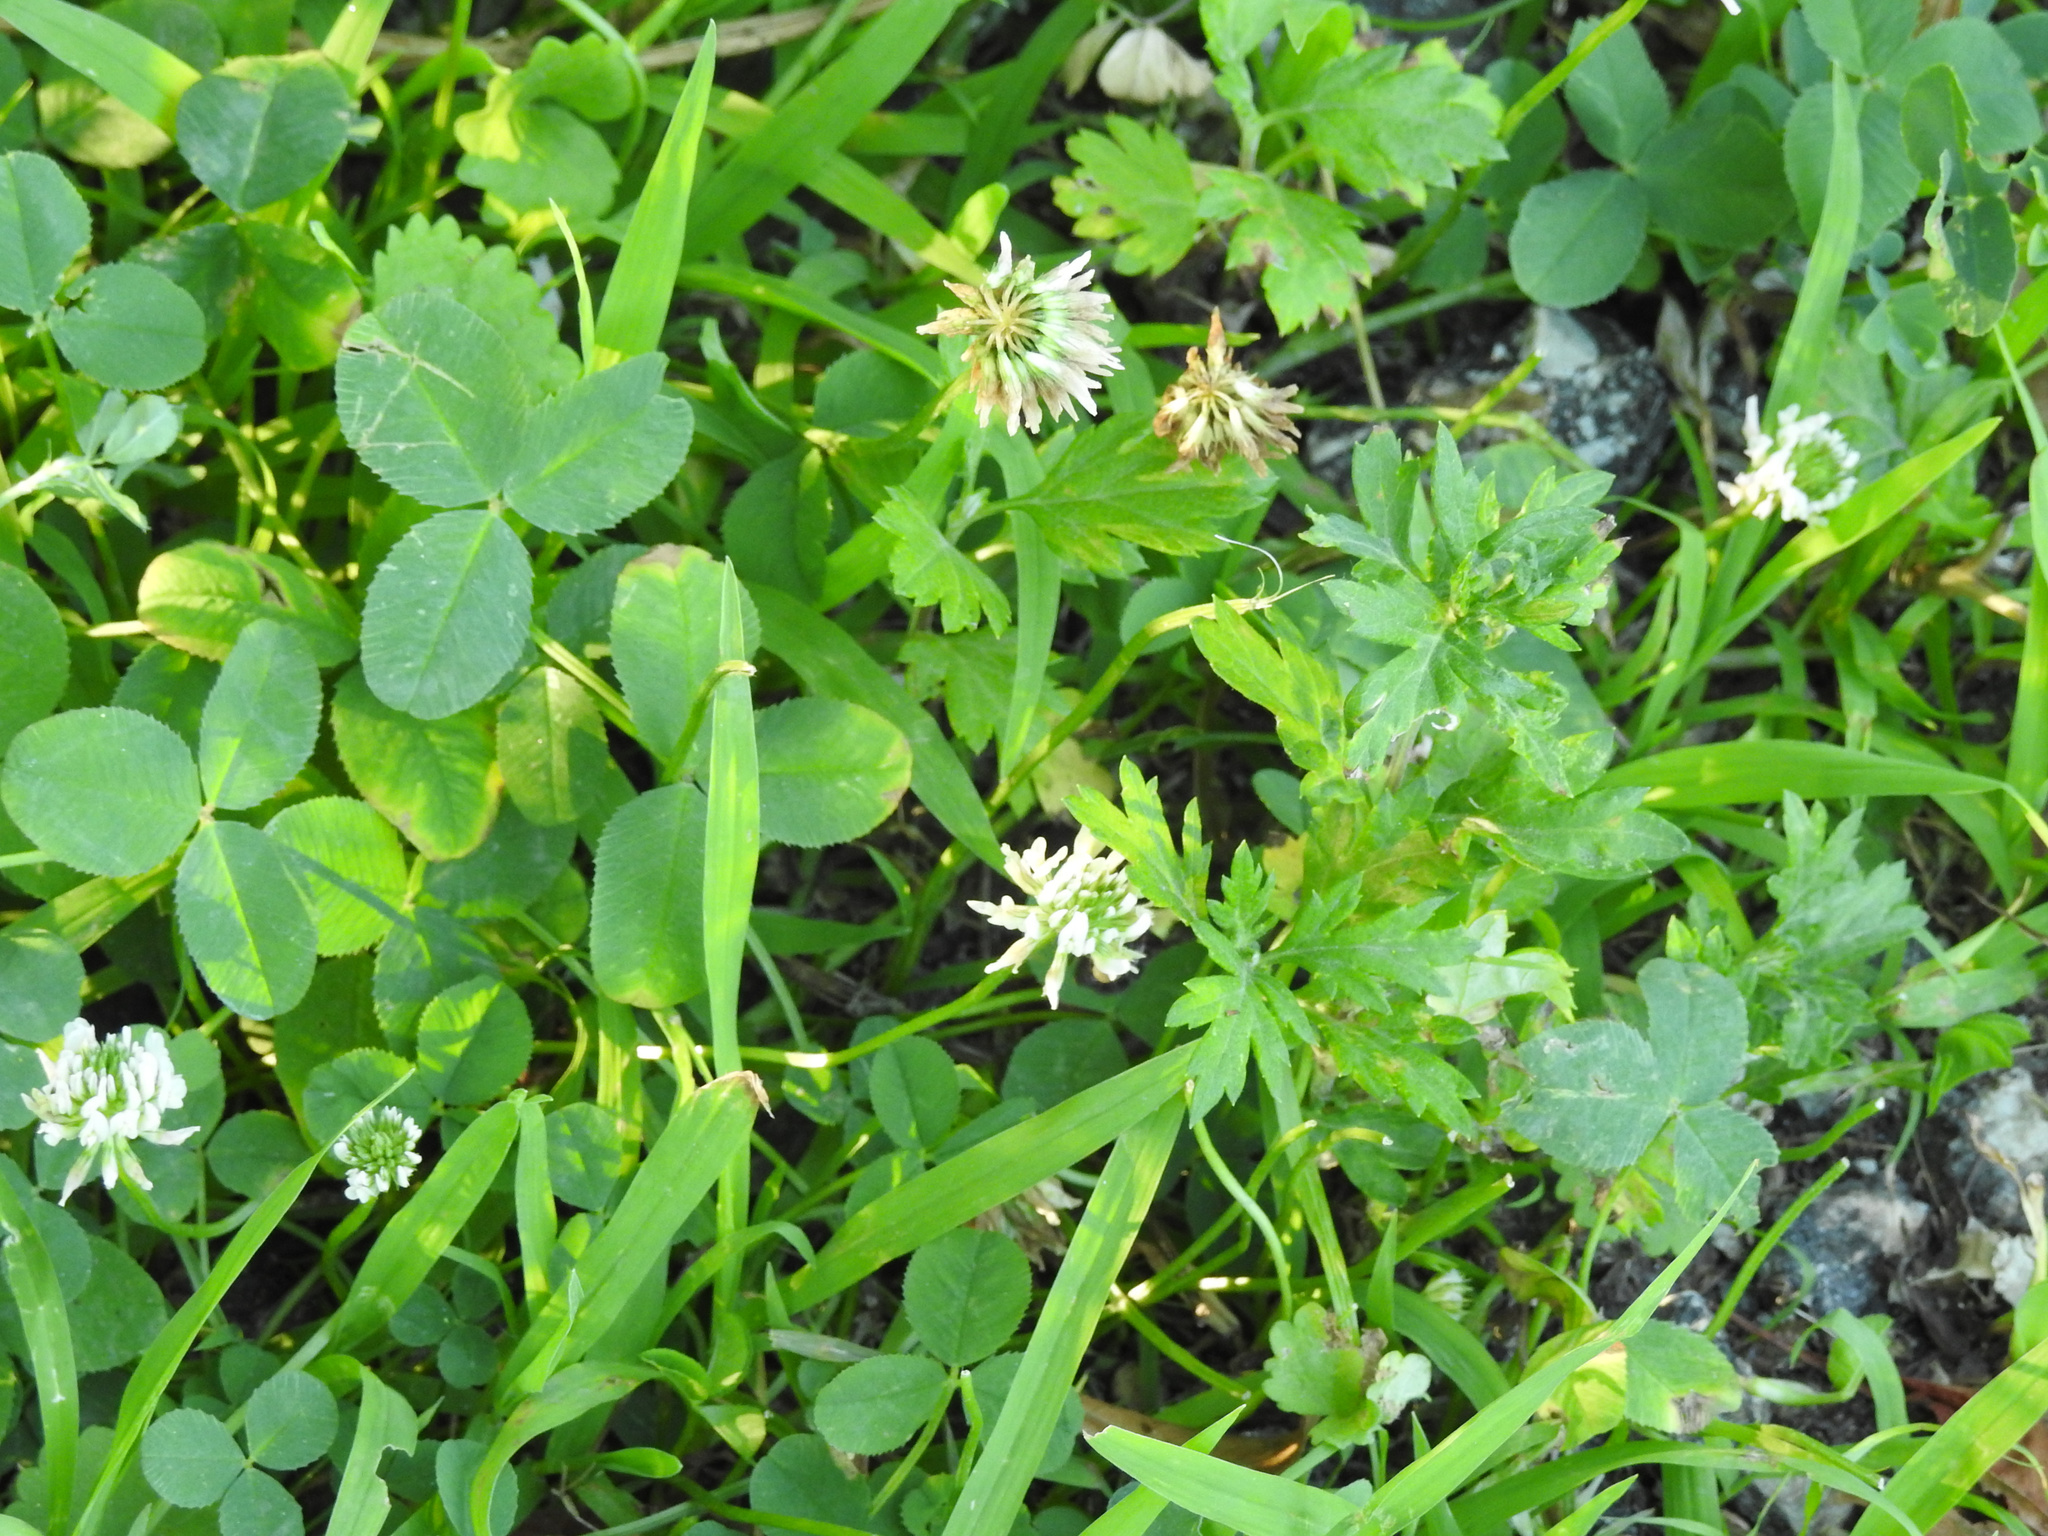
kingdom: Plantae
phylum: Tracheophyta
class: Magnoliopsida
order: Fabales
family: Fabaceae
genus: Trifolium
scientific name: Trifolium repens
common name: White clover
